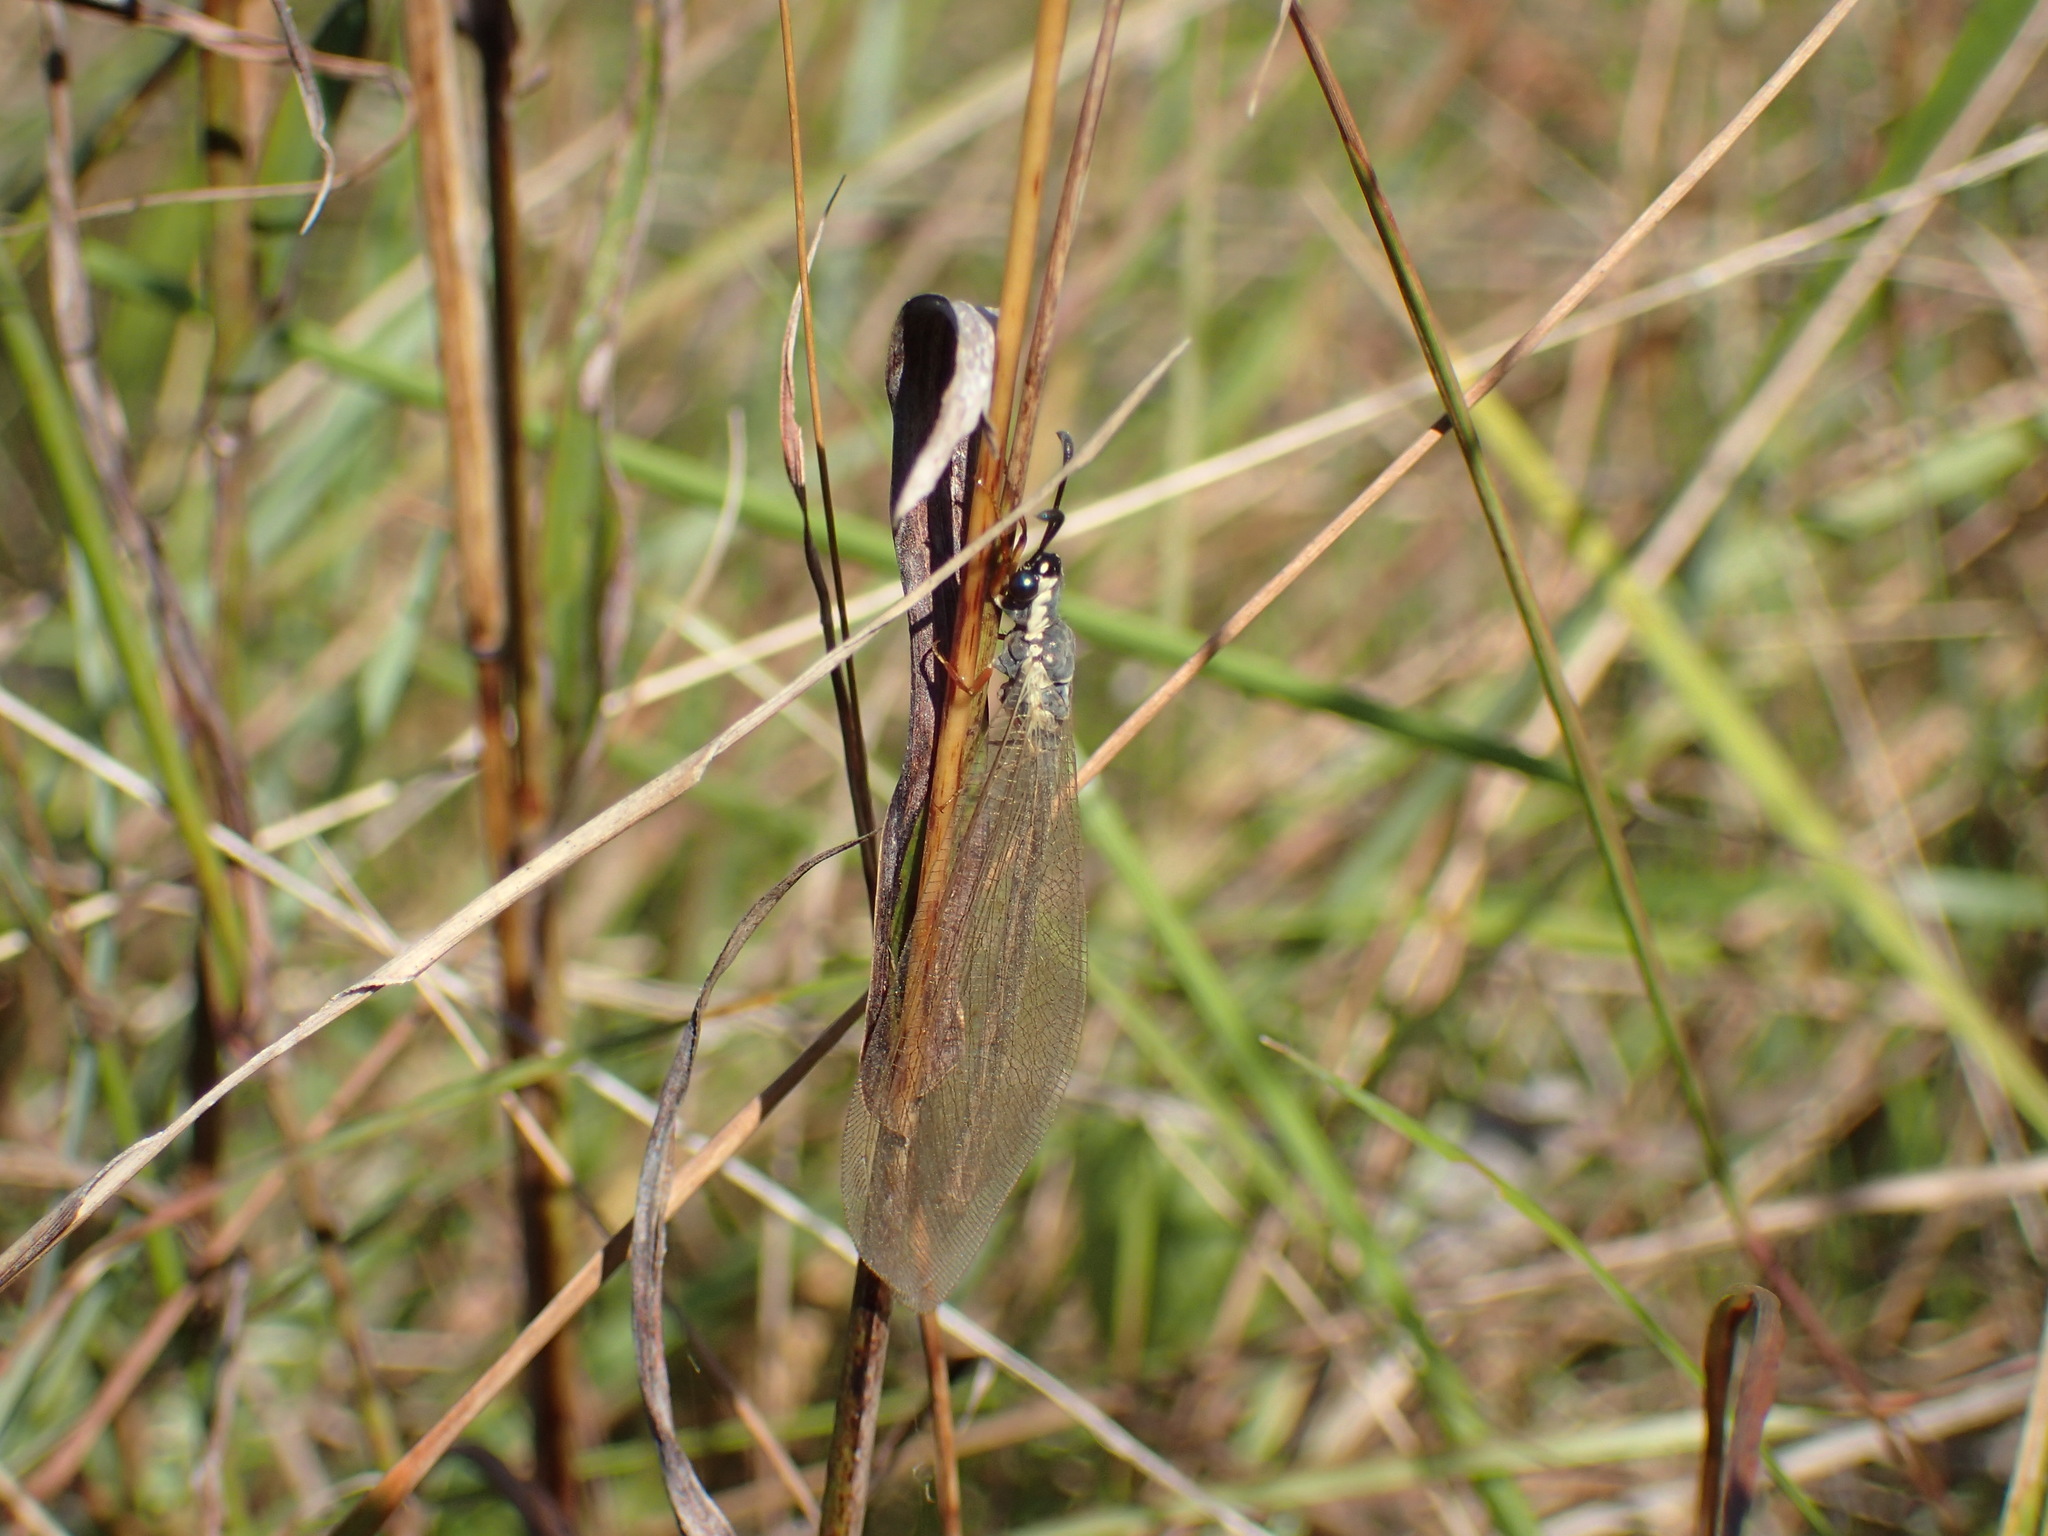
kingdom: Animalia
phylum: Arthropoda
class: Insecta
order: Neuroptera
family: Myrmeleontidae
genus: Myrmeleon
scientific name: Myrmeleon lethifer
